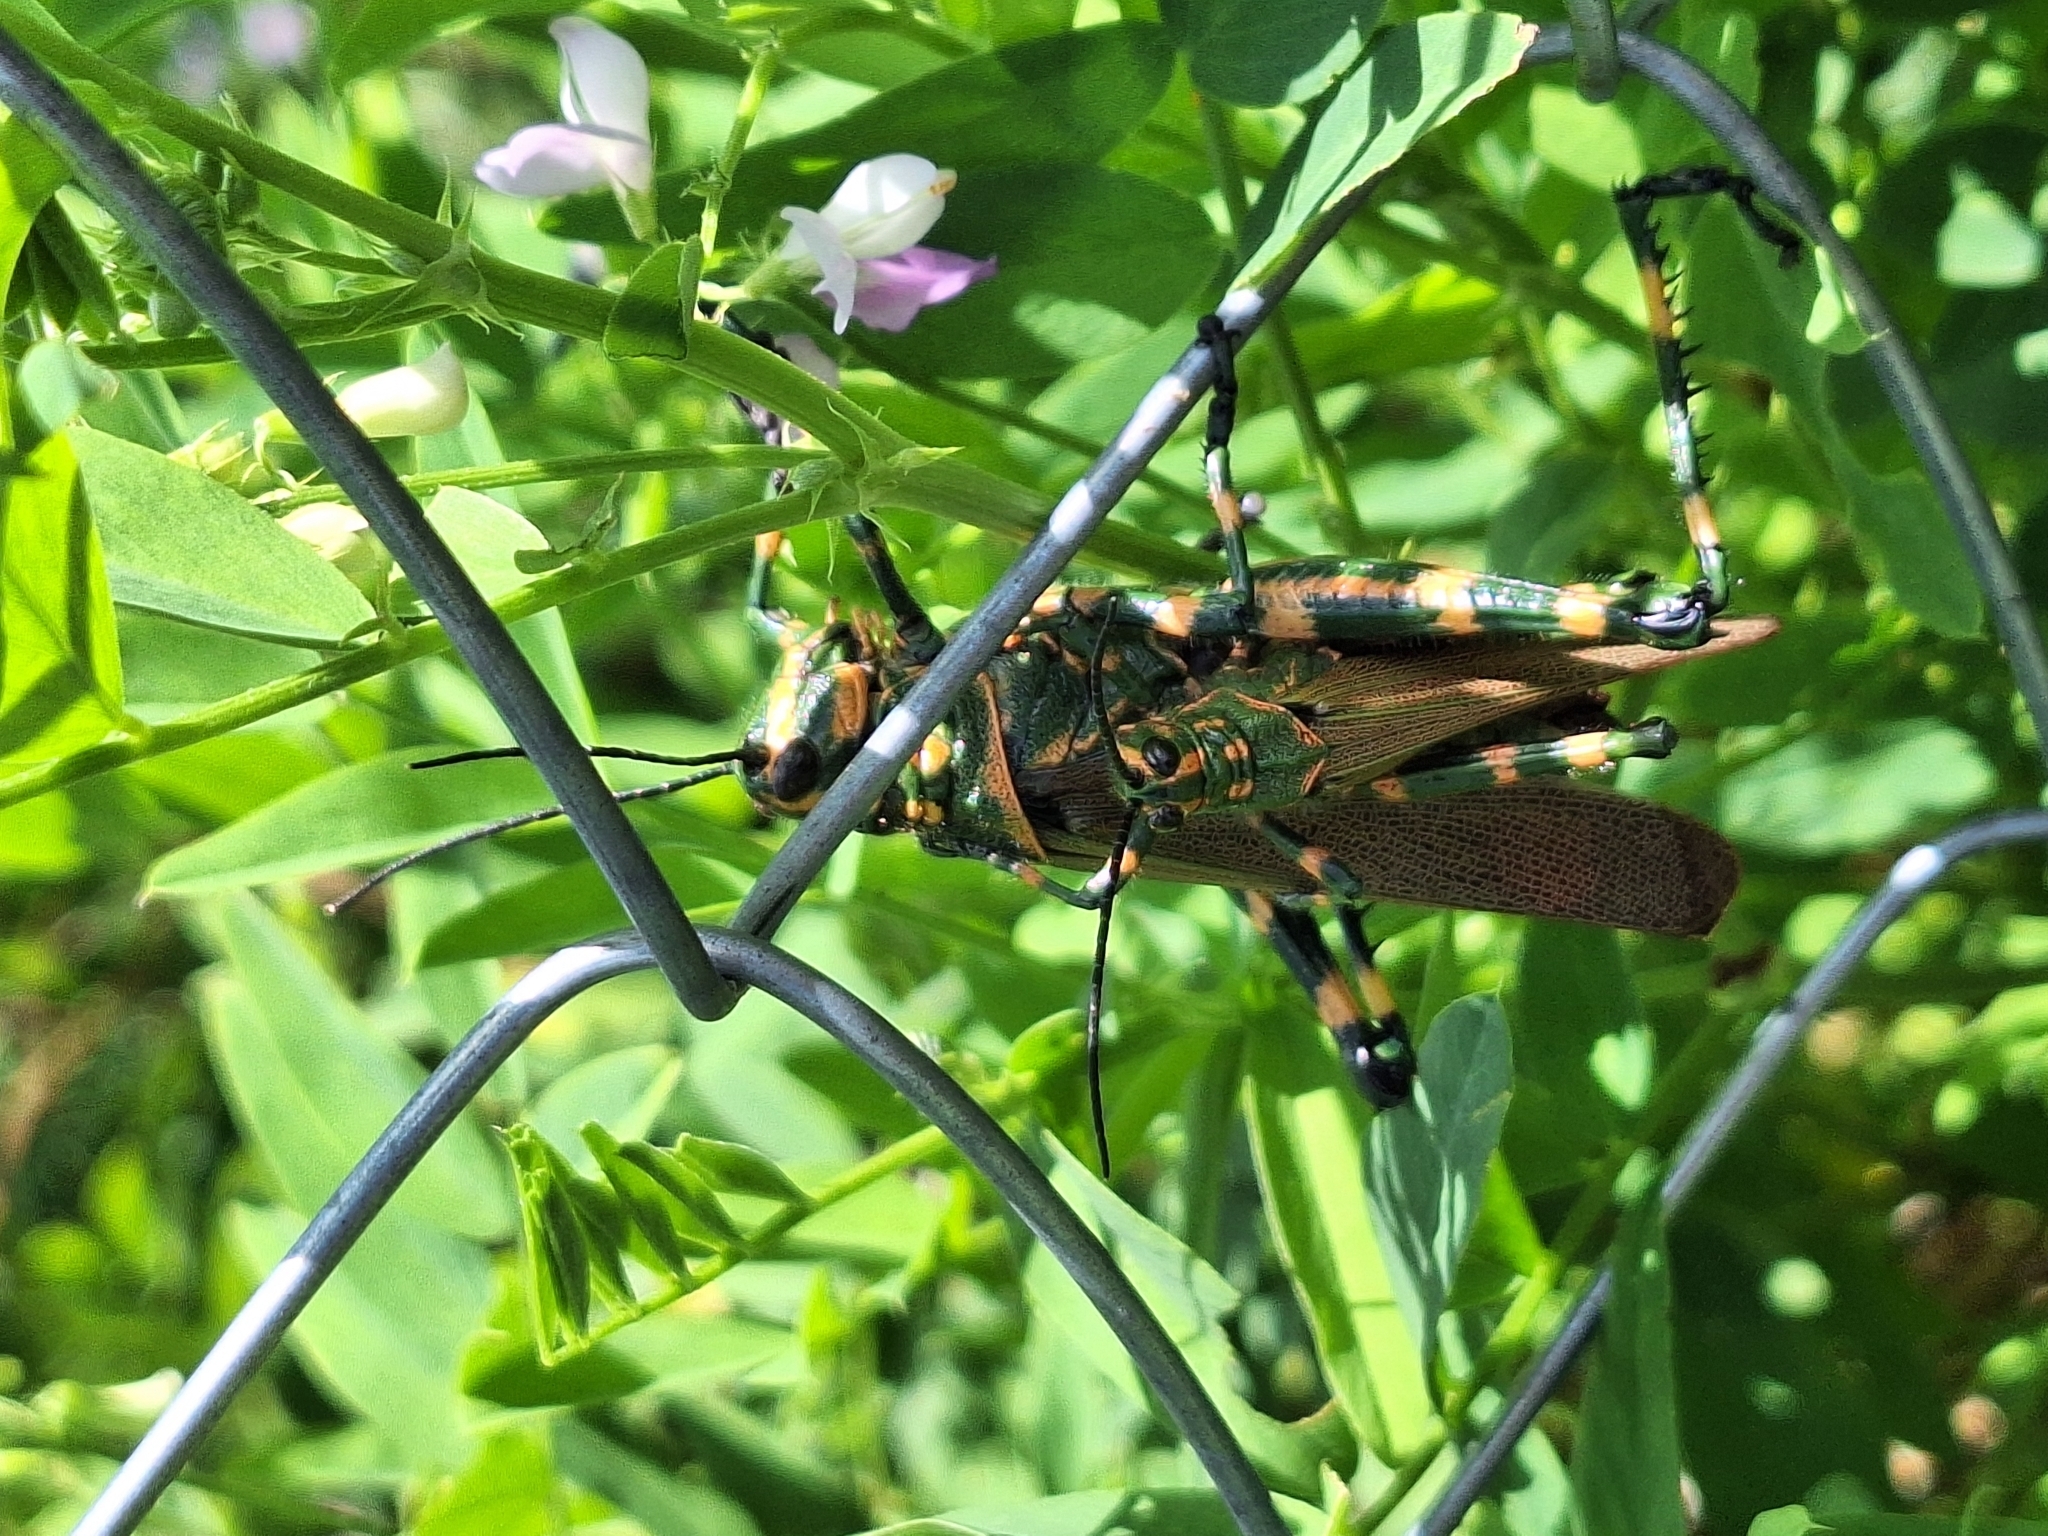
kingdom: Animalia
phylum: Arthropoda
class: Insecta
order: Orthoptera
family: Romaleidae
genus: Chromacris
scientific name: Chromacris speciosa
